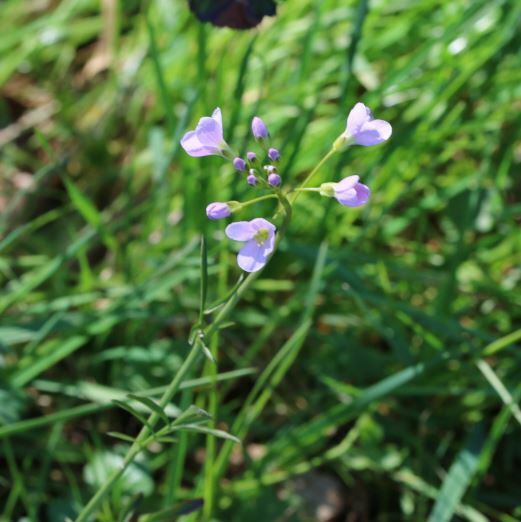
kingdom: Plantae
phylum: Tracheophyta
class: Magnoliopsida
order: Brassicales
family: Brassicaceae
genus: Cardamine
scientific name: Cardamine pratensis
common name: Cuckoo flower
